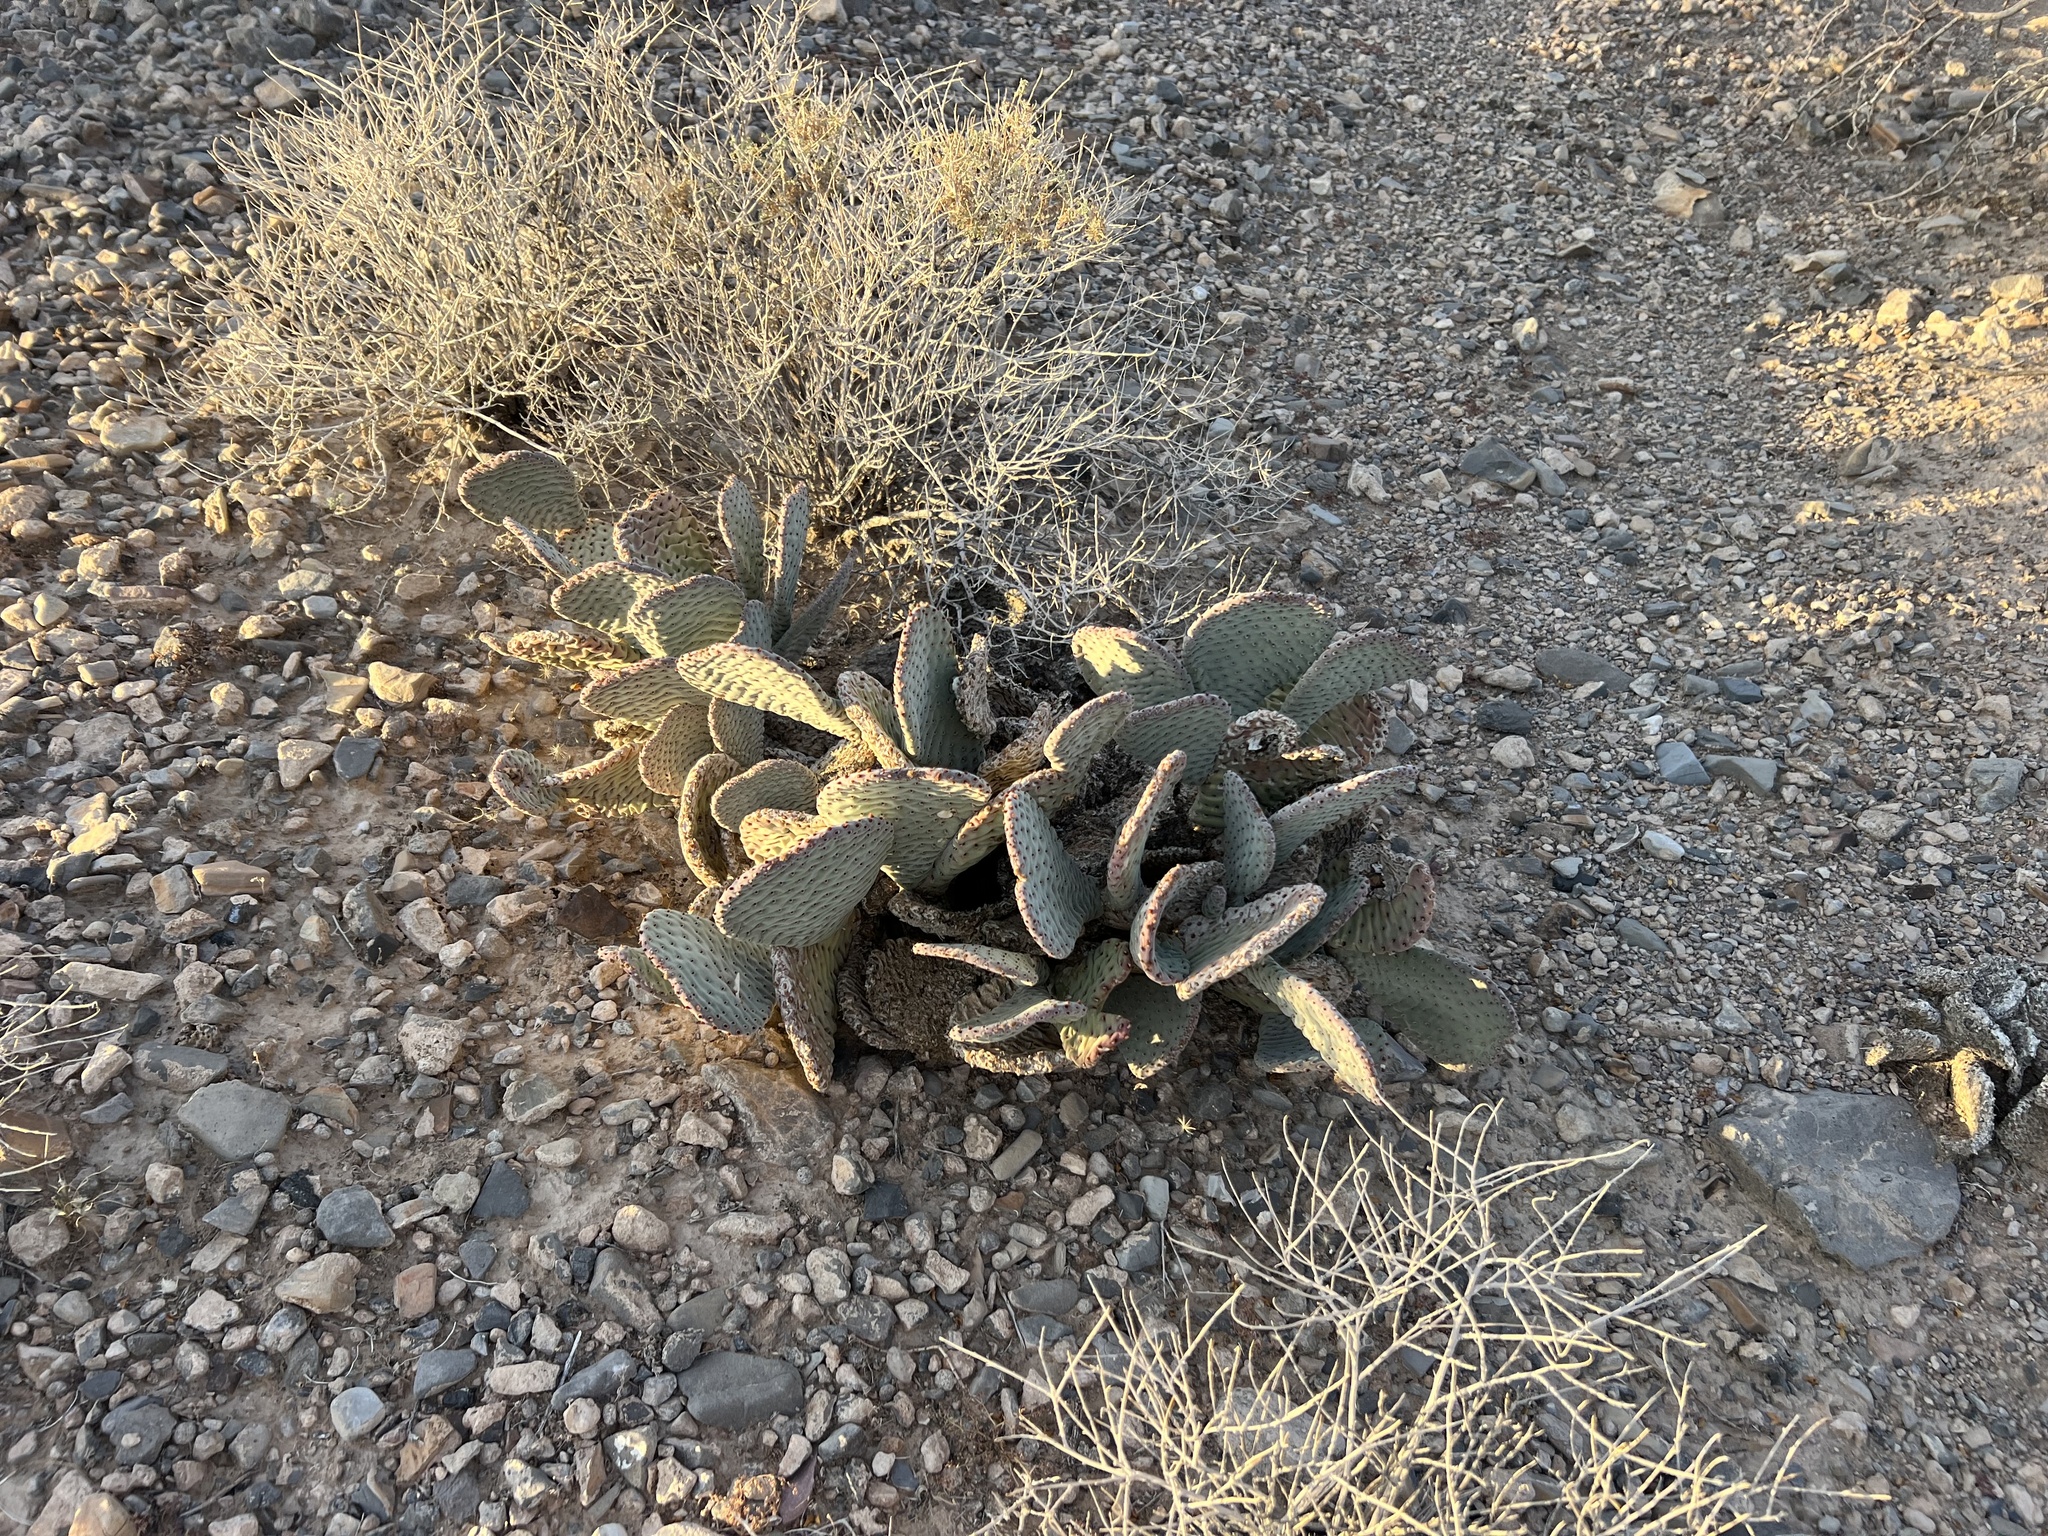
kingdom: Plantae
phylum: Tracheophyta
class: Magnoliopsida
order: Caryophyllales
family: Cactaceae
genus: Opuntia
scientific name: Opuntia basilaris
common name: Beavertail prickly-pear
